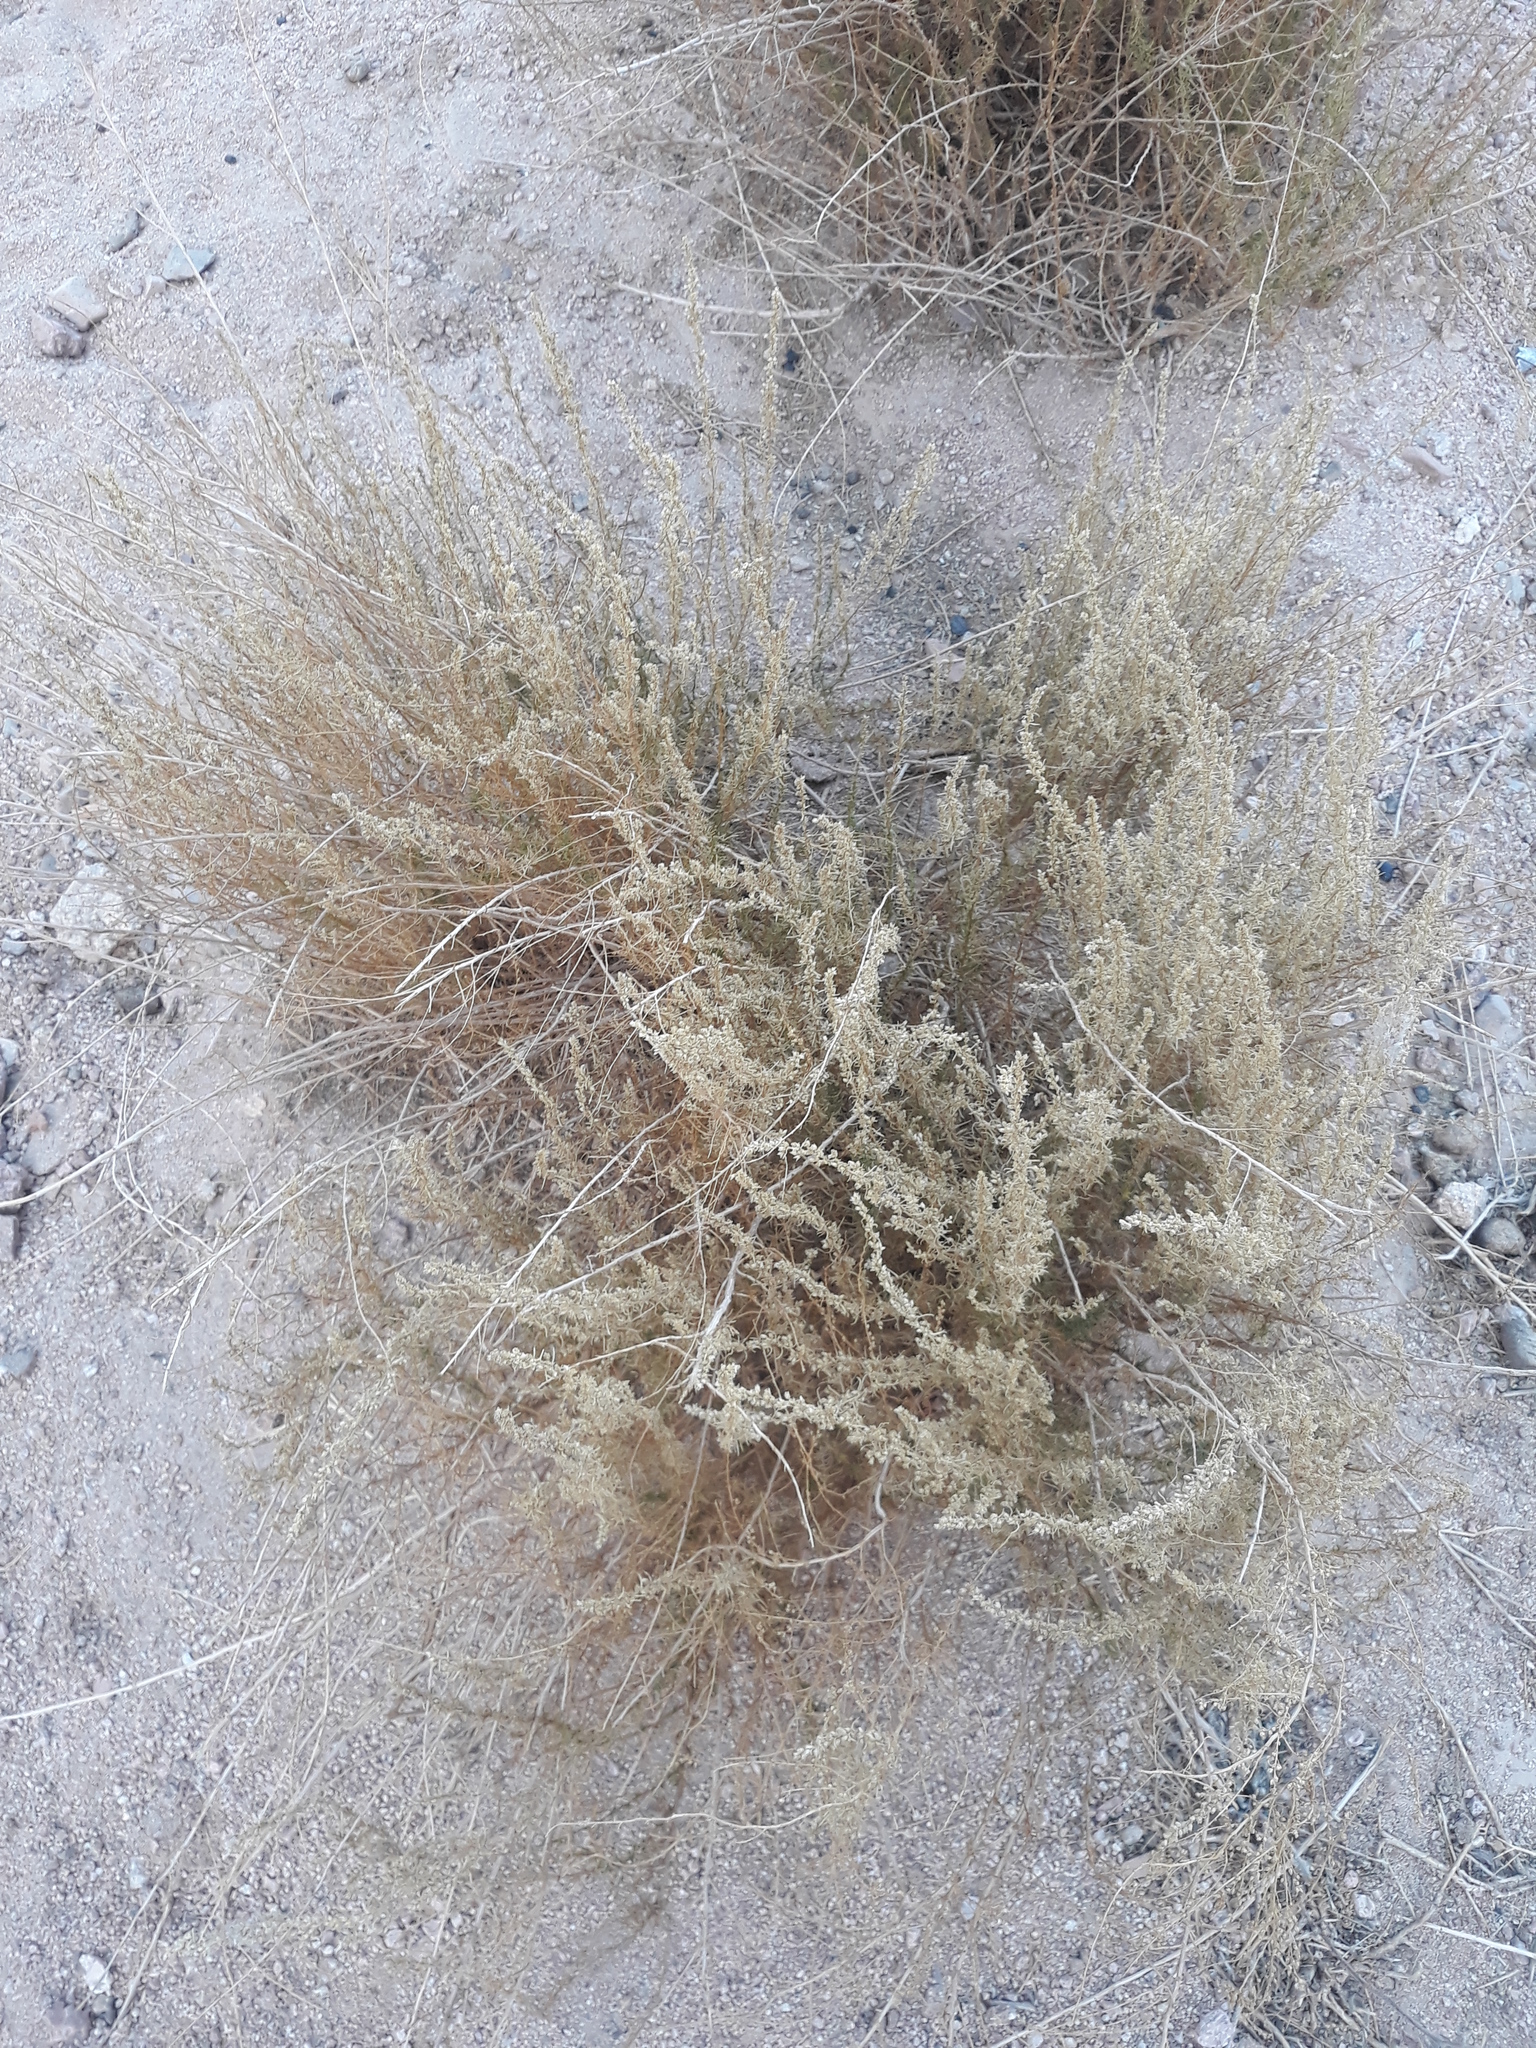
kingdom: Plantae
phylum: Tracheophyta
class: Magnoliopsida
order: Asterales
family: Asteraceae
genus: Artemisia
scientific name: Artemisia campestris
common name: Field wormwood
